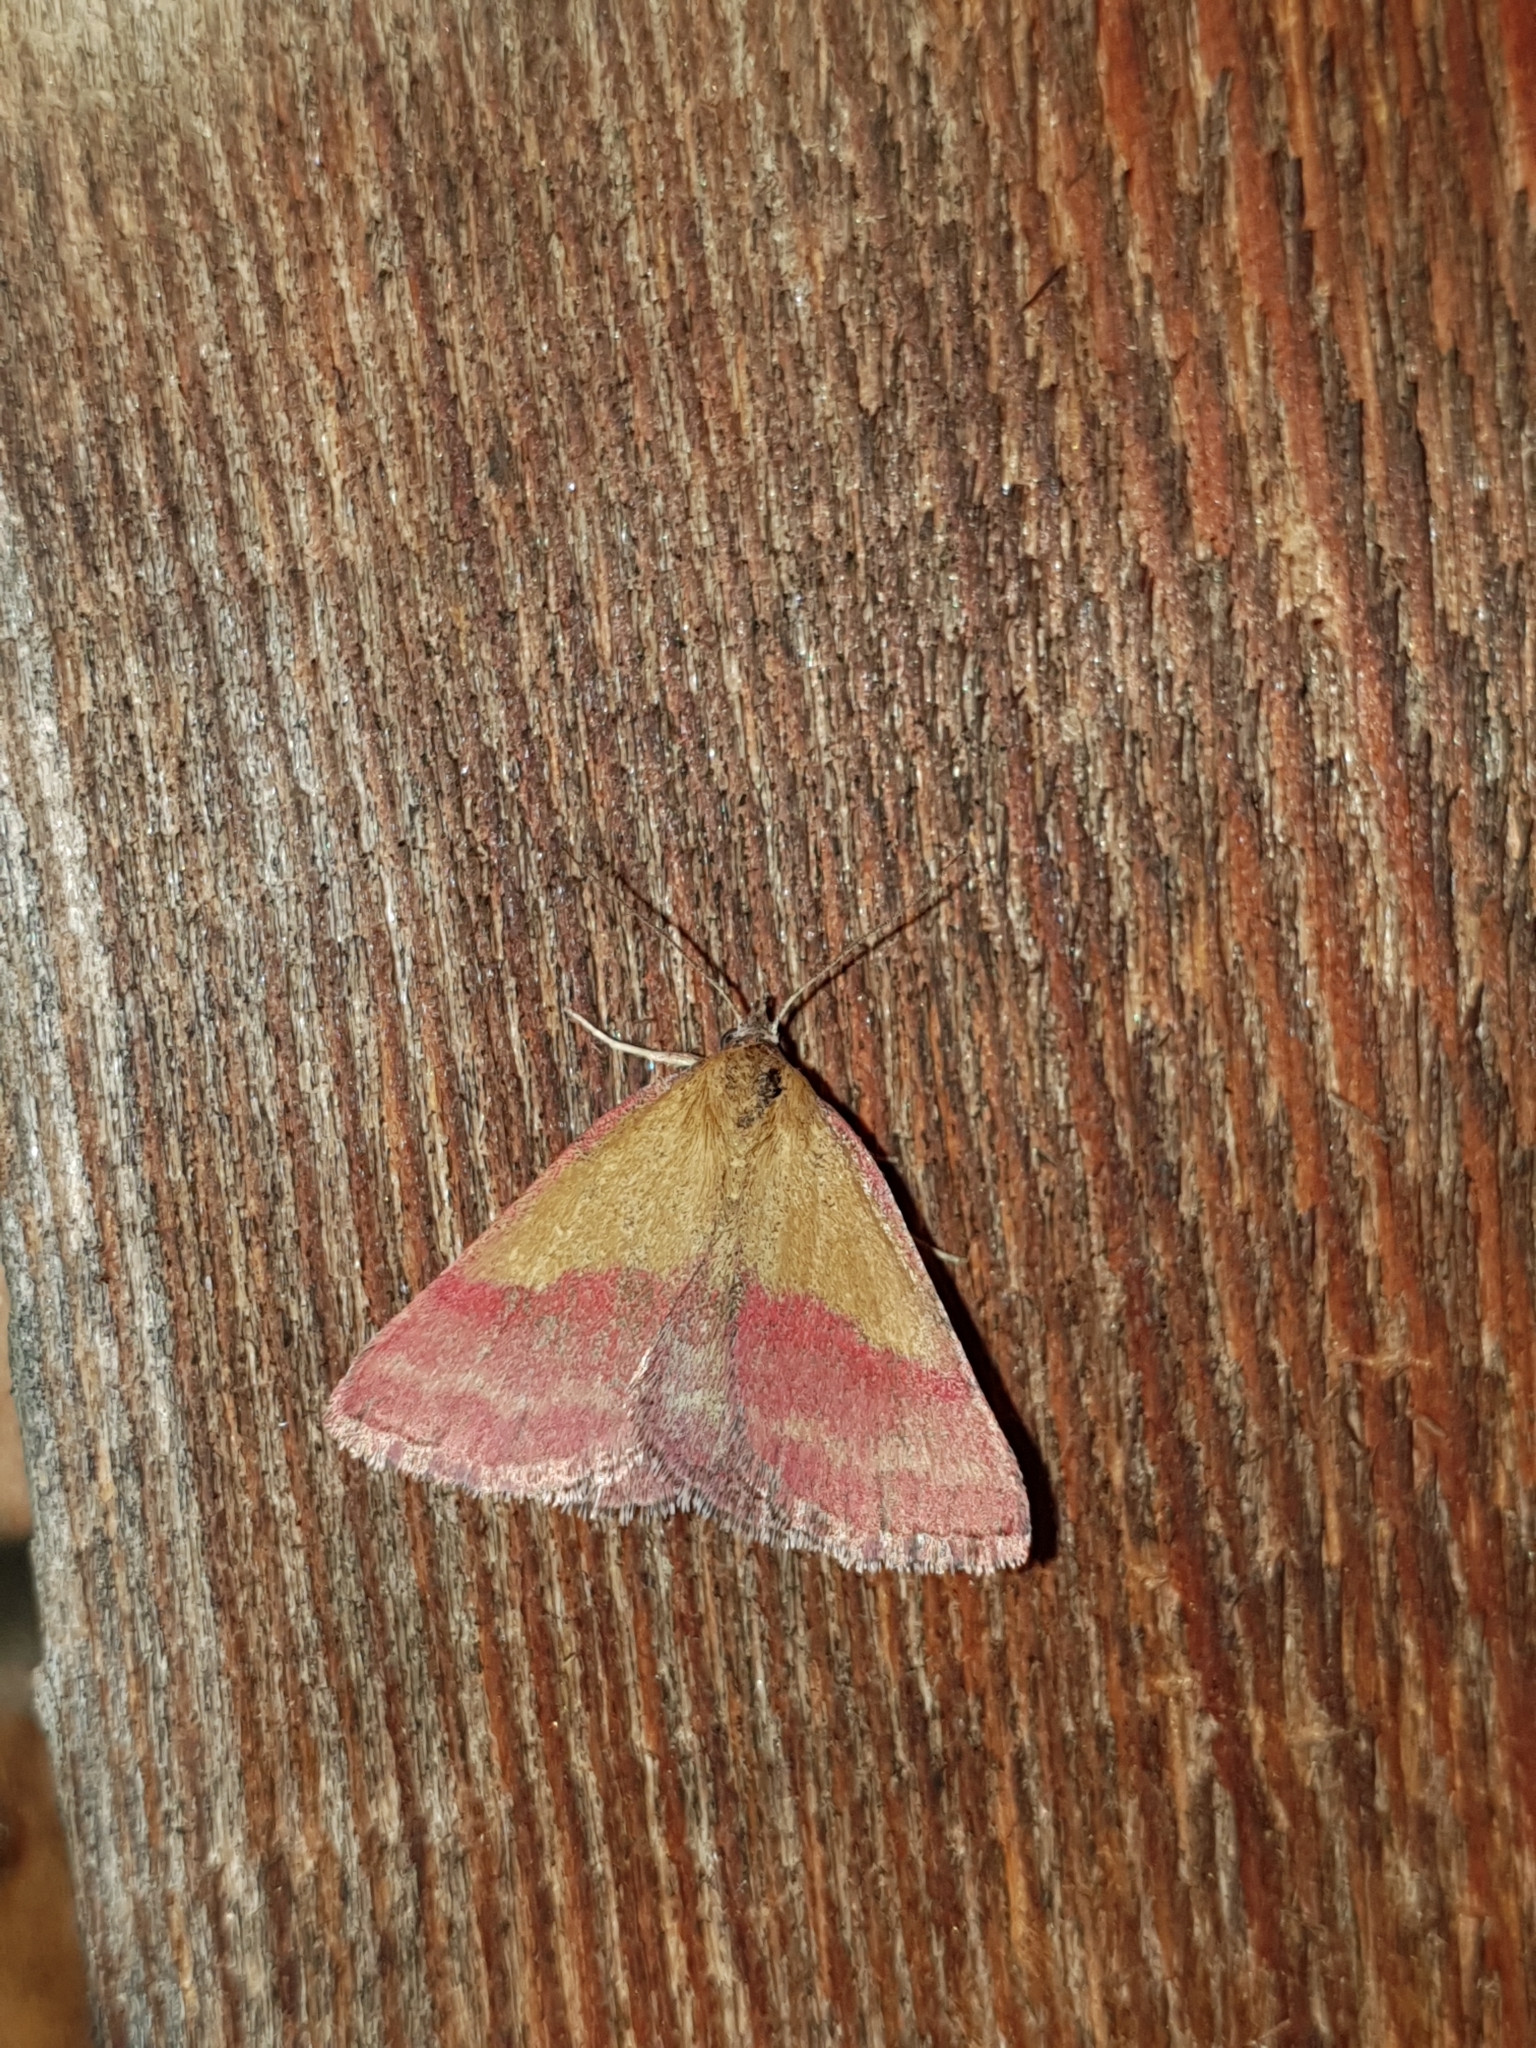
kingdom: Animalia
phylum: Arthropoda
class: Insecta
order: Lepidoptera
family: Erebidae
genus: Phytometra
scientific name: Phytometra viridaria
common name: Small purple-barred
